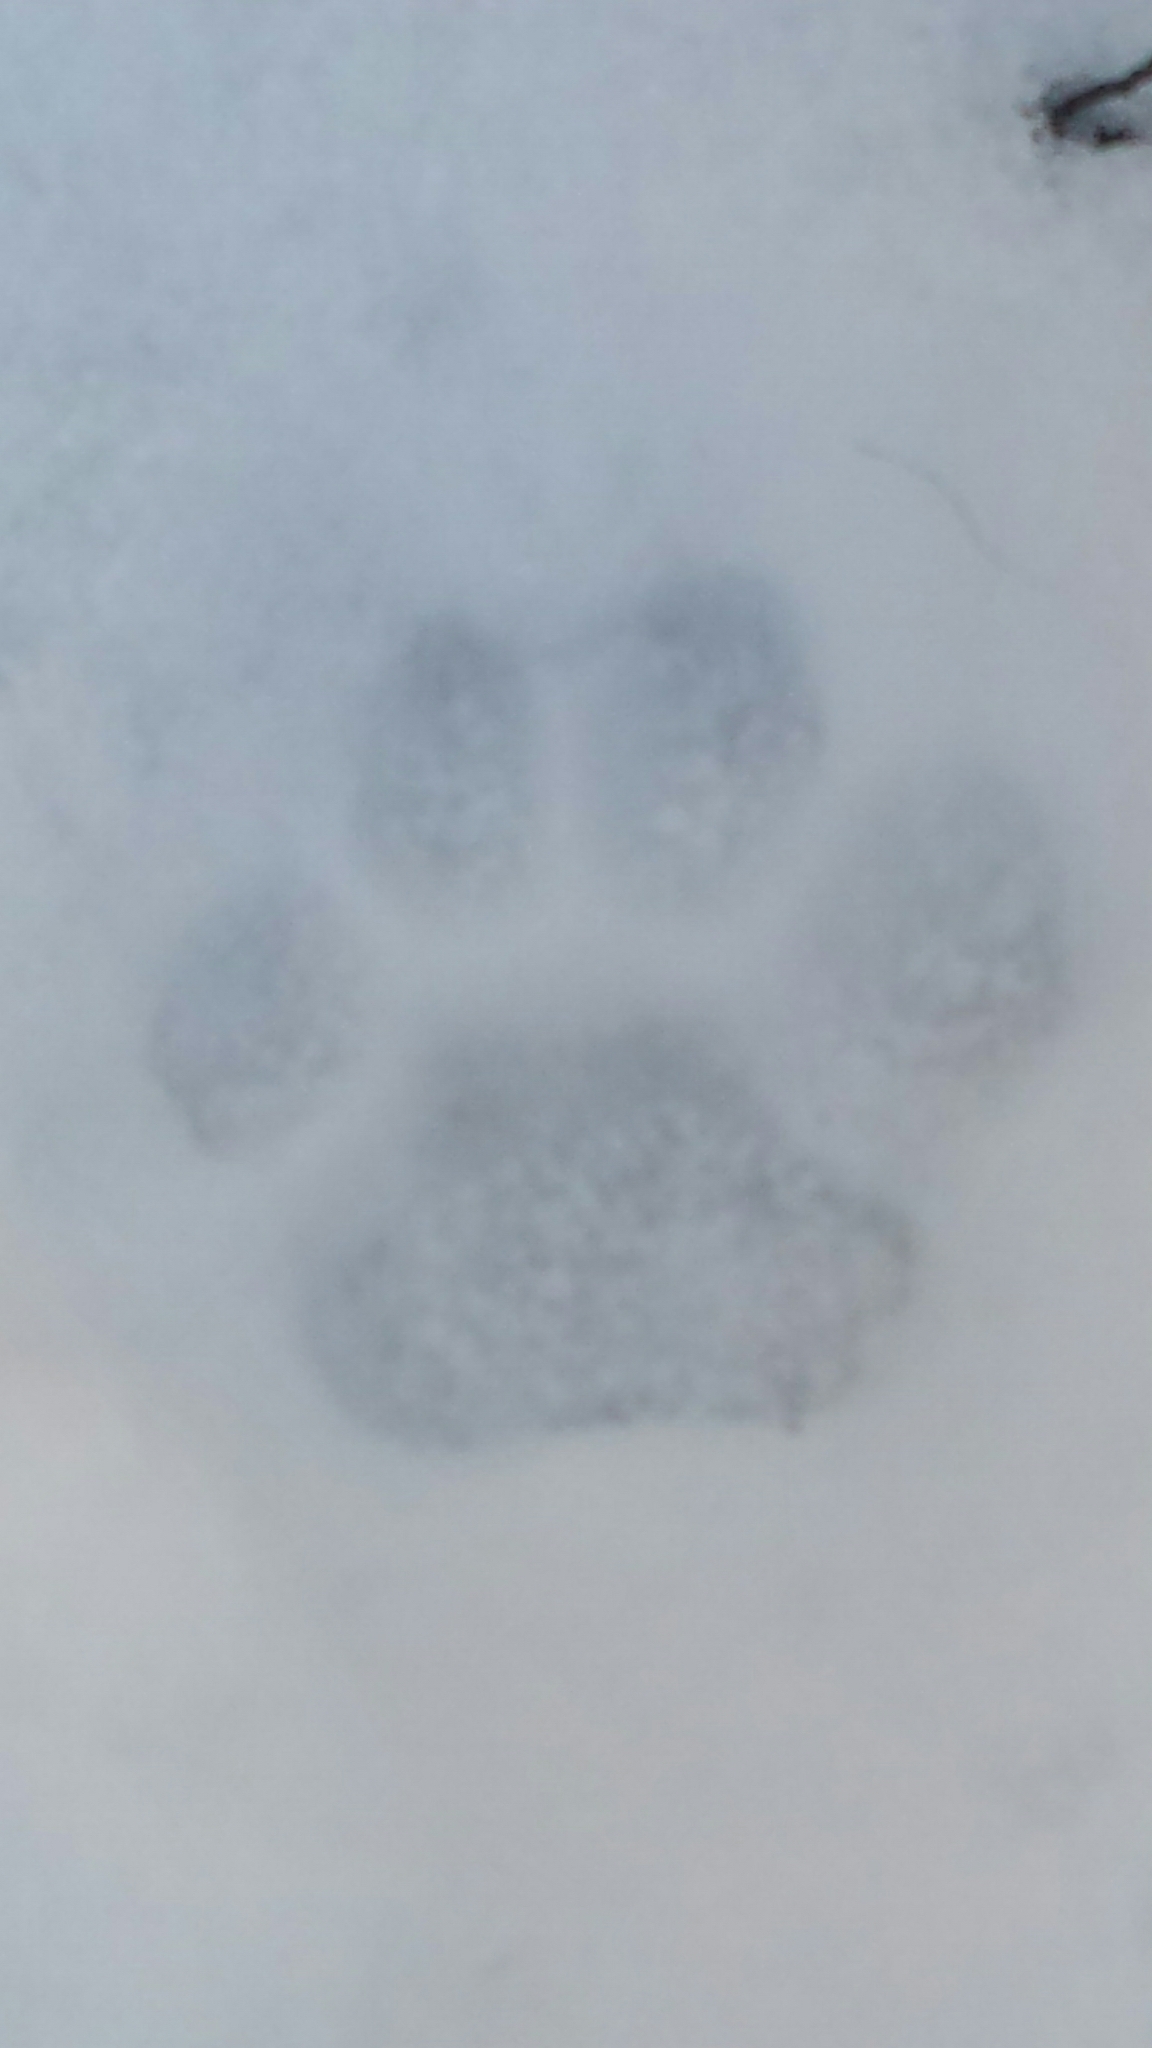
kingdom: Animalia
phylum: Chordata
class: Mammalia
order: Carnivora
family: Felidae
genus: Lynx
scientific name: Lynx rufus
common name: Bobcat
